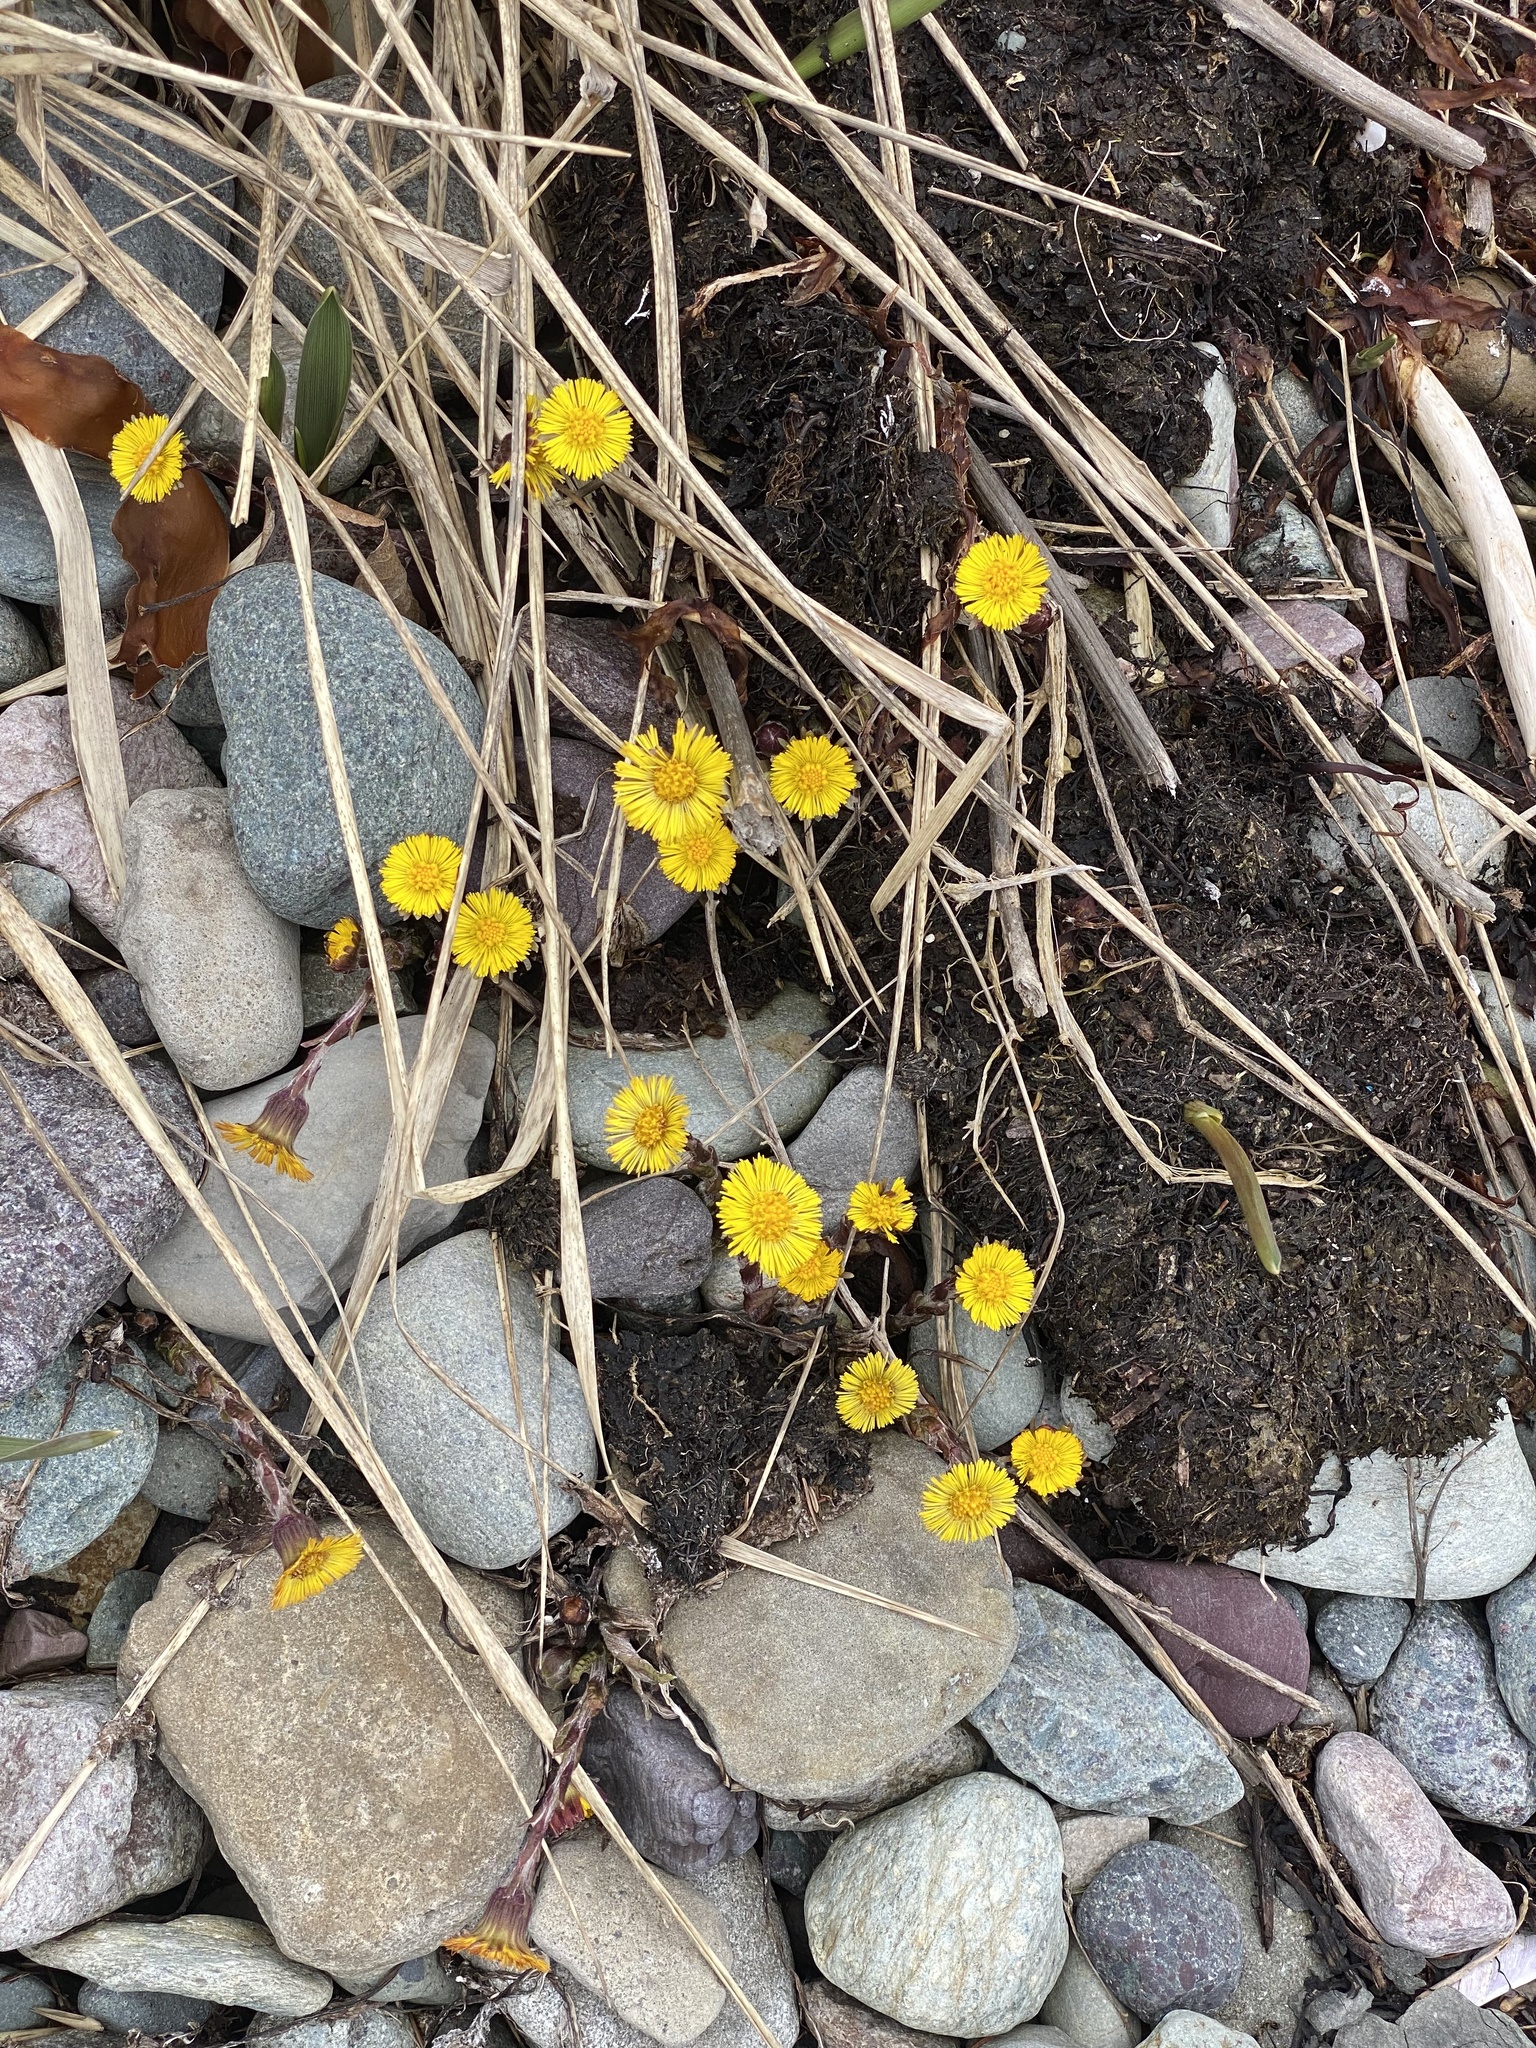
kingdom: Plantae
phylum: Tracheophyta
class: Magnoliopsida
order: Asterales
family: Asteraceae
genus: Tussilago
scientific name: Tussilago farfara
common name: Coltsfoot
